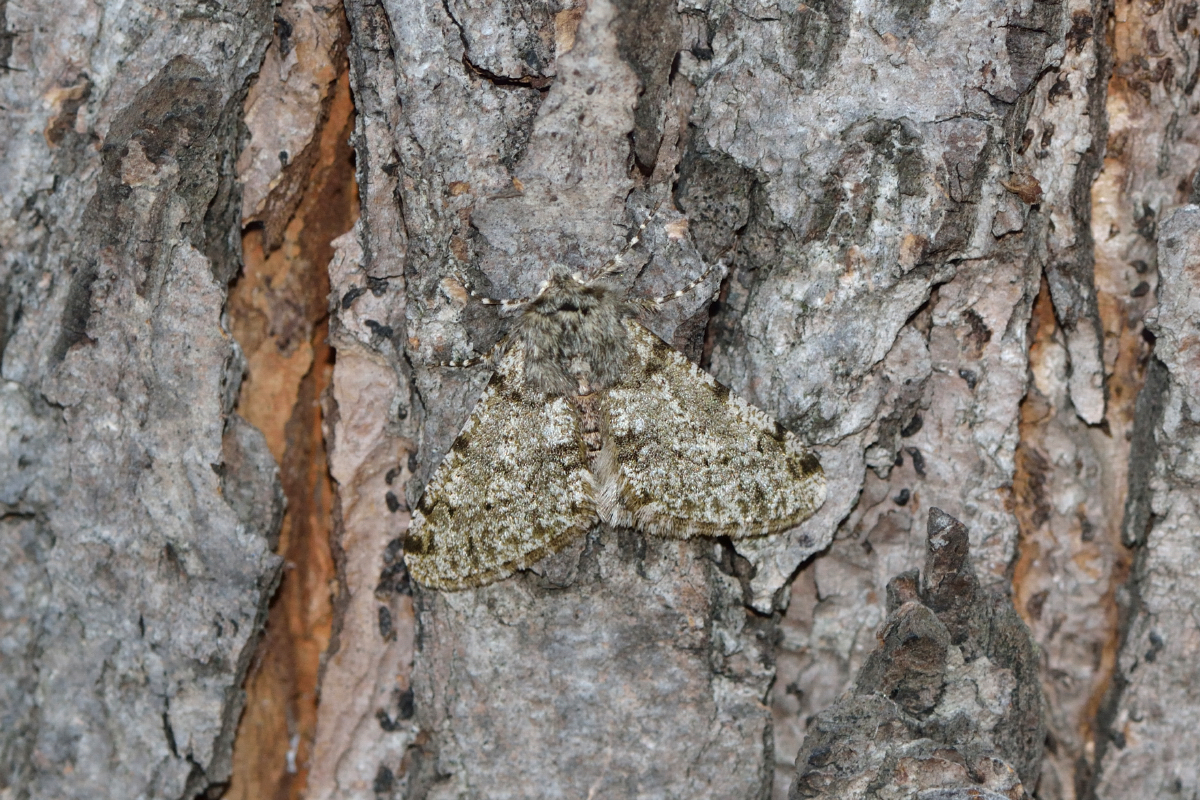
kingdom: Animalia
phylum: Arthropoda
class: Insecta
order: Lepidoptera
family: Geometridae
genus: Phigalia
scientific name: Phigalia pilosaria
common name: Pale brindled beauty
